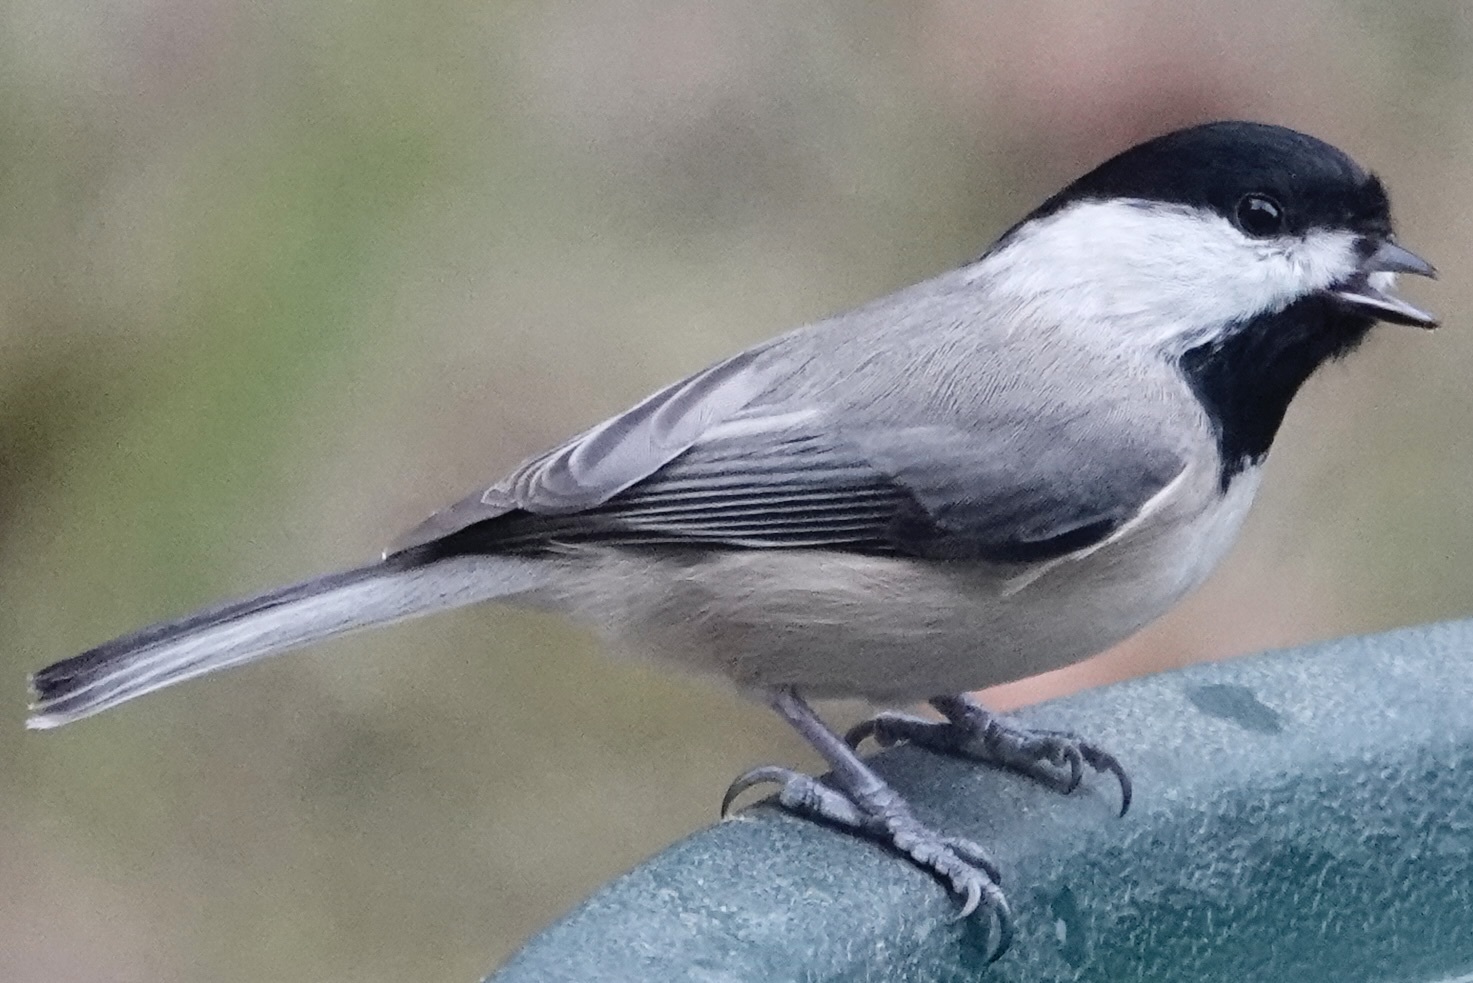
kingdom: Animalia
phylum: Chordata
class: Aves
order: Passeriformes
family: Paridae
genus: Poecile
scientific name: Poecile carolinensis
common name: Carolina chickadee
